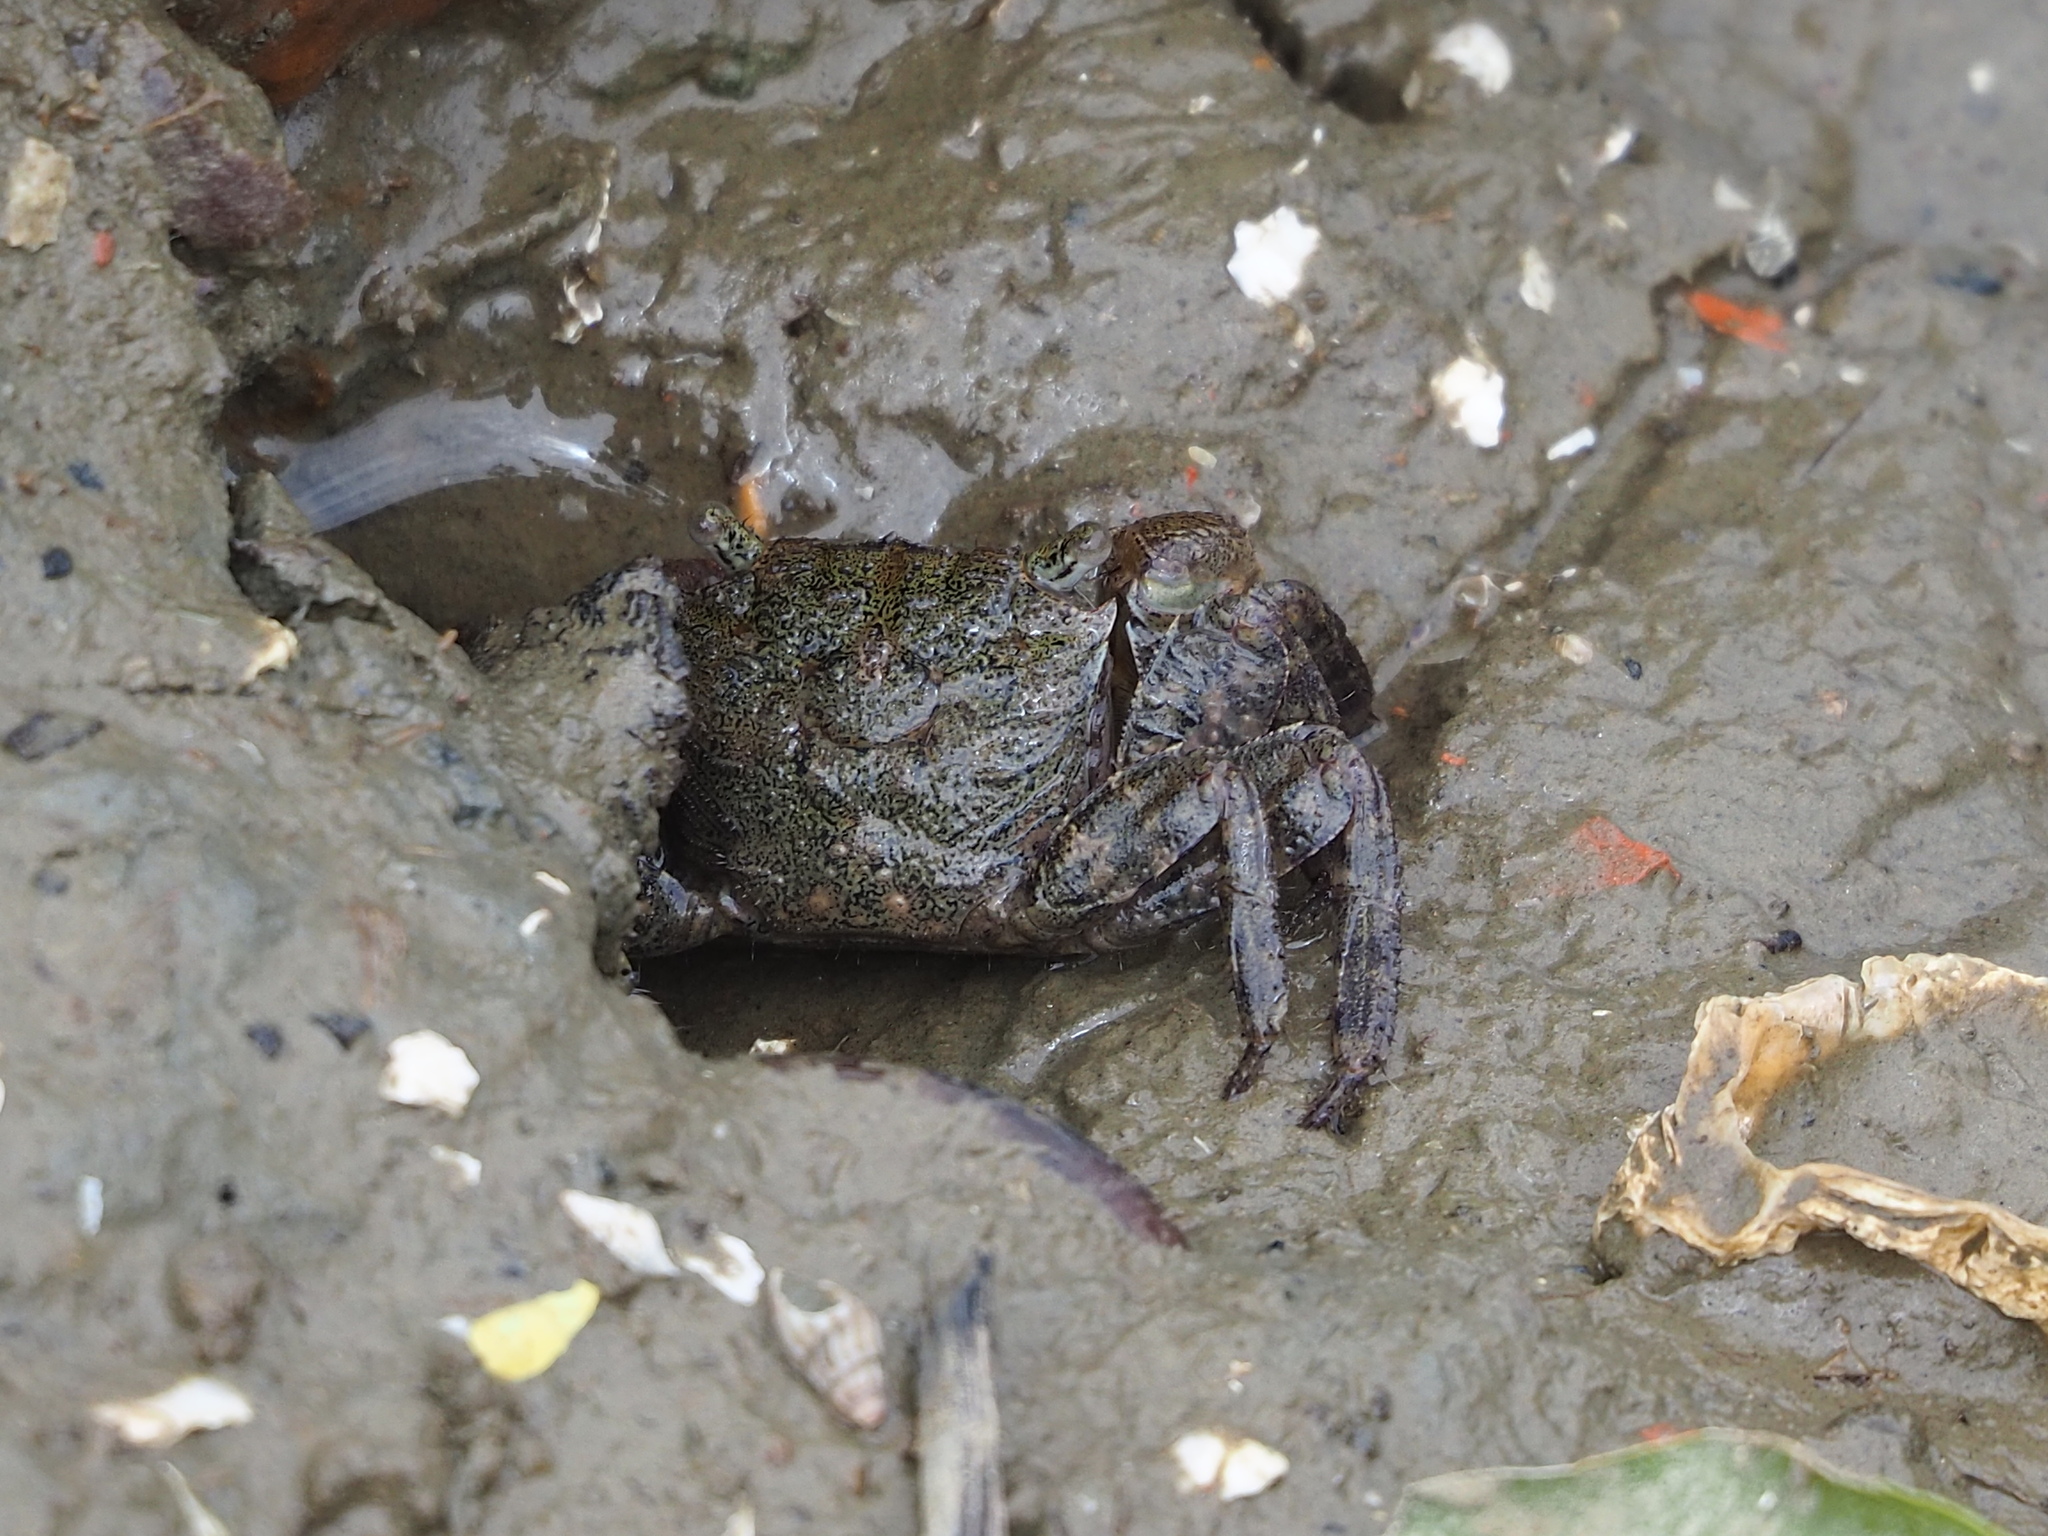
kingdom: Animalia
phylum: Arthropoda
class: Malacostraca
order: Decapoda
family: Sesarmidae
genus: Parasesarma
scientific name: Parasesarma insulare
